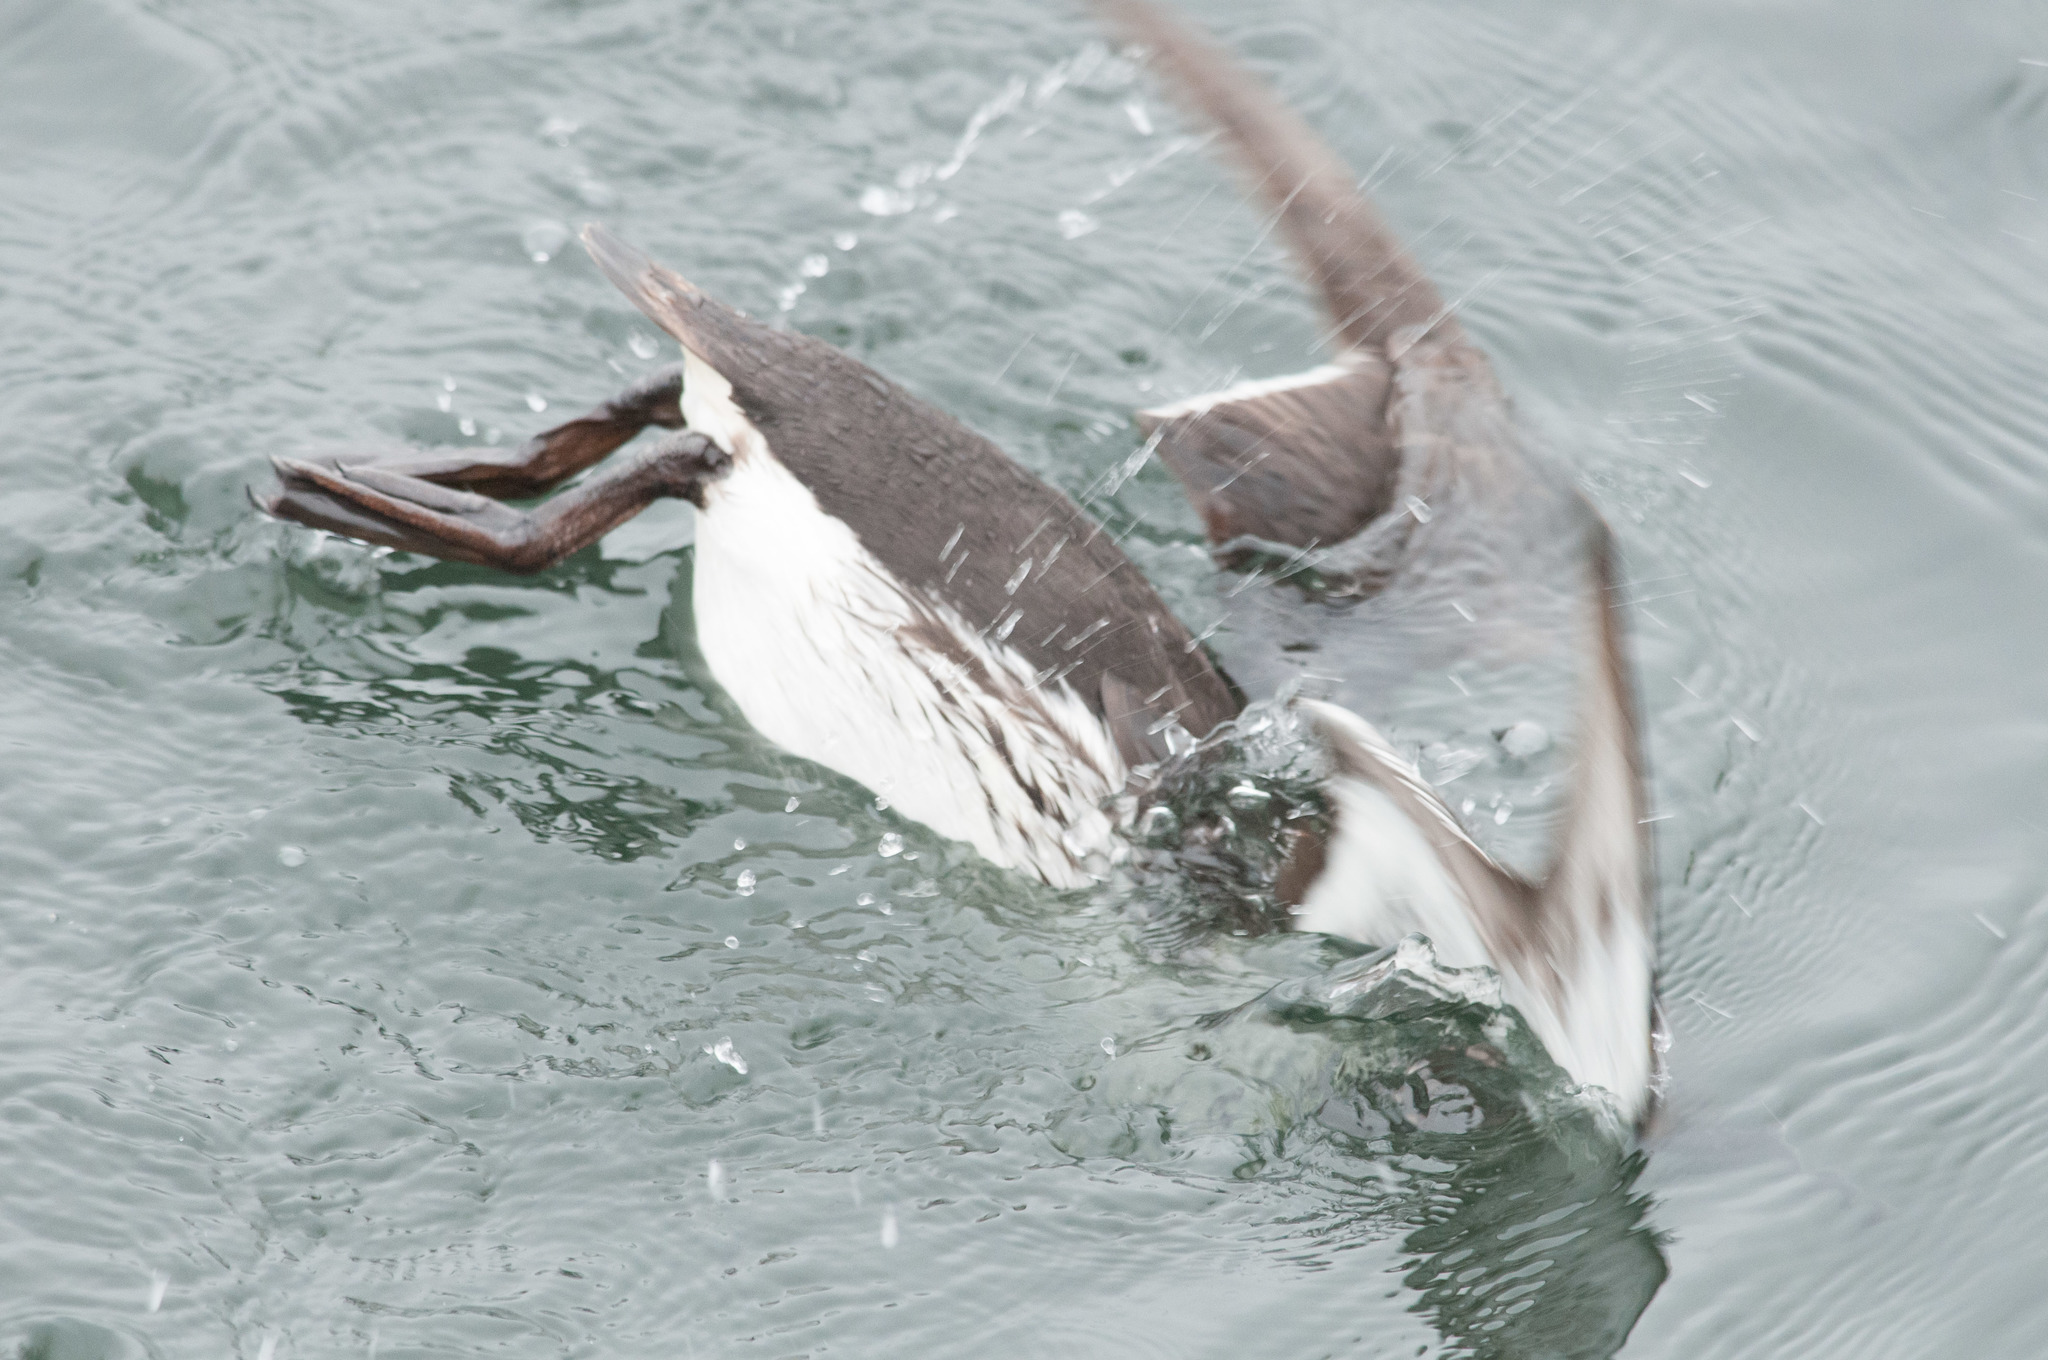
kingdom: Animalia
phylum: Chordata
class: Aves
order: Charadriiformes
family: Alcidae
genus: Uria
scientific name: Uria aalge
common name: Common murre
